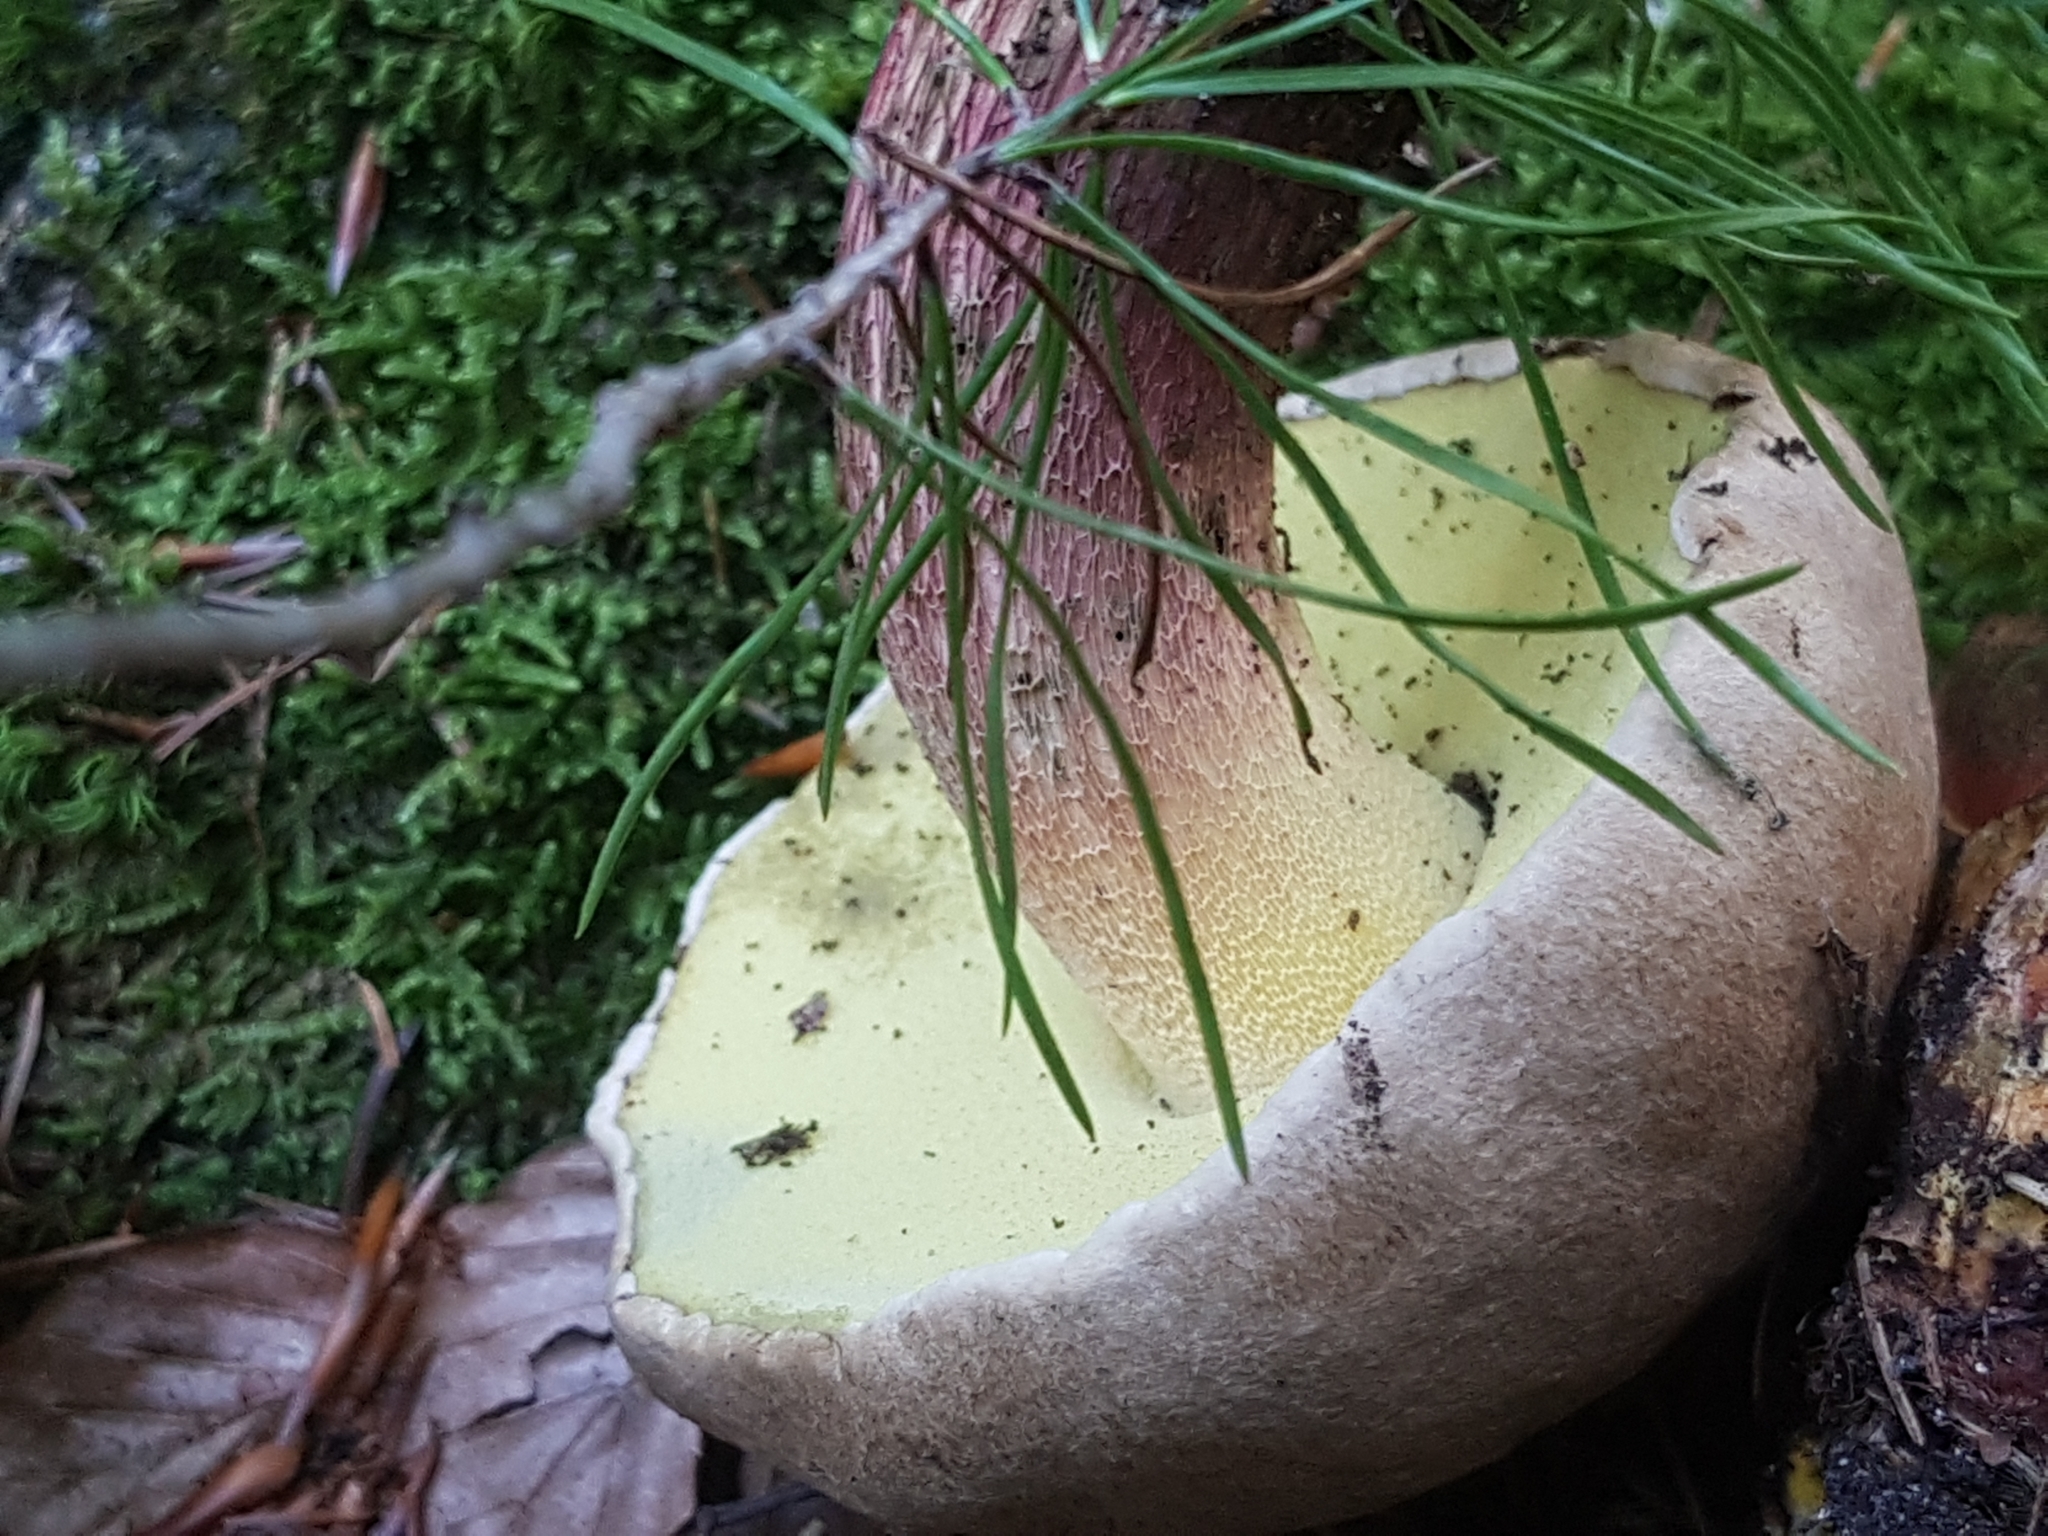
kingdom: Fungi
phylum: Basidiomycota
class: Agaricomycetes
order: Boletales
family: Boletaceae
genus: Caloboletus
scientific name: Caloboletus calopus
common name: Bitter beech bolete
